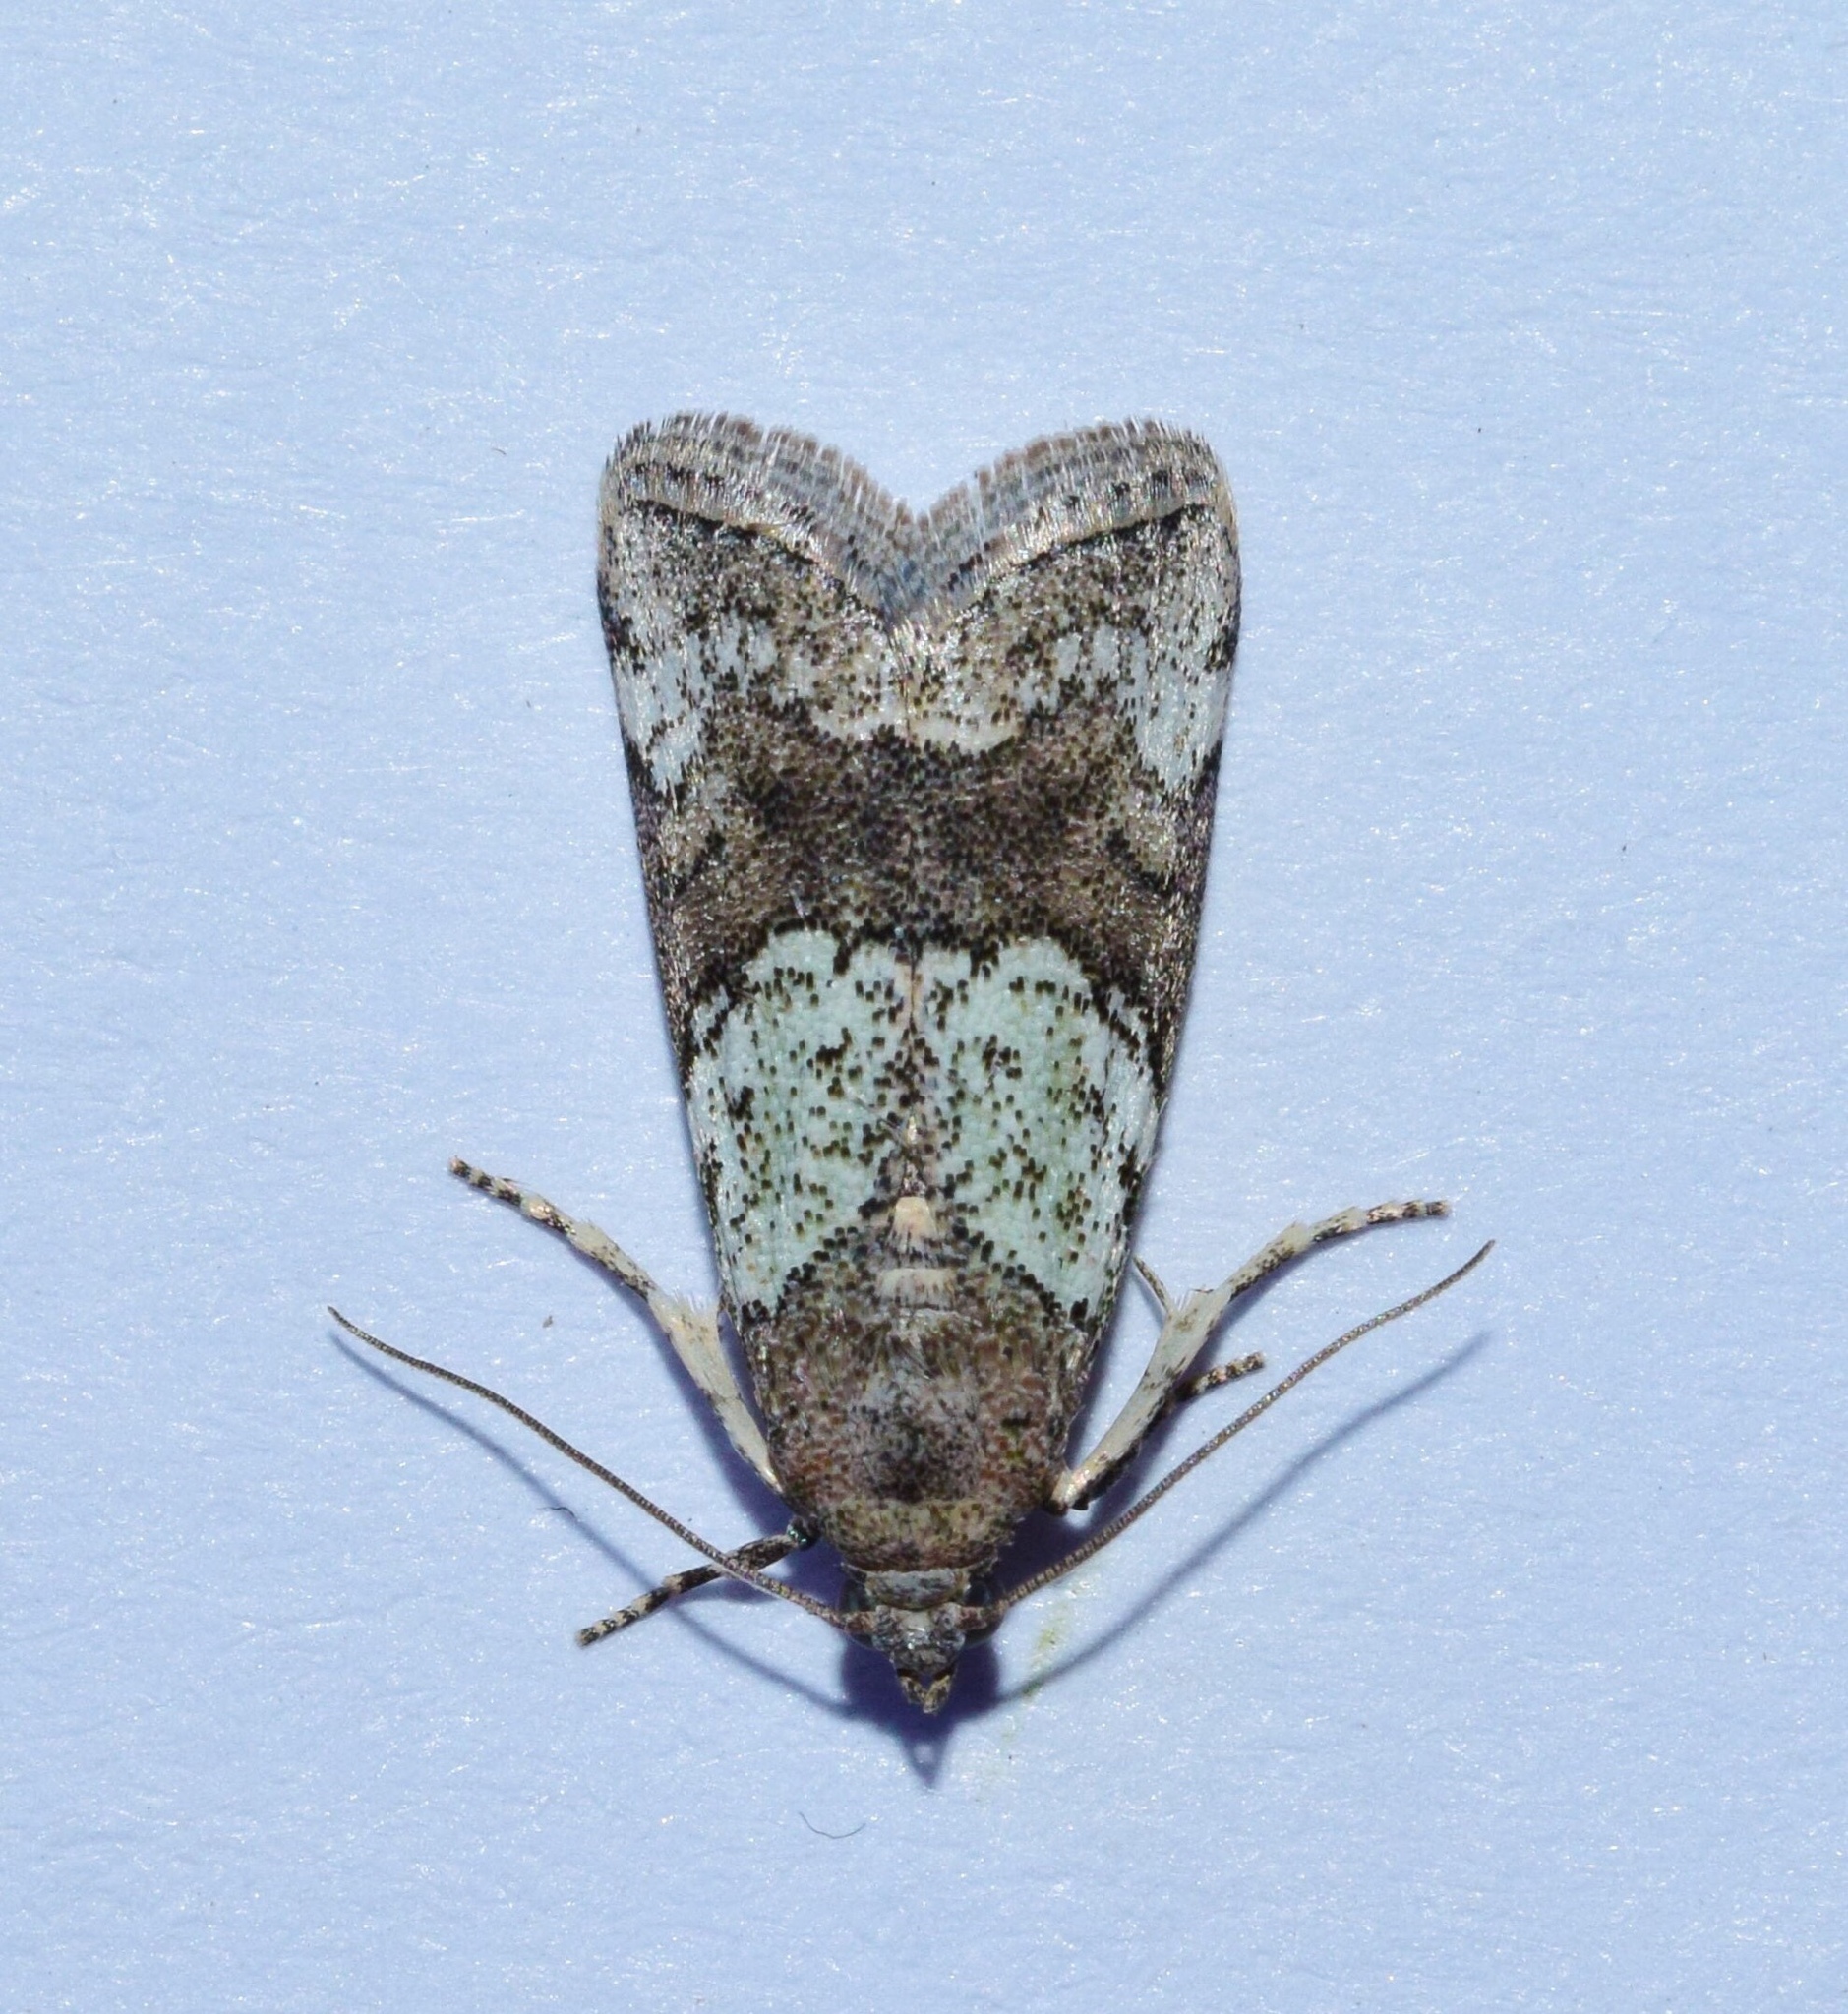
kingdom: Animalia
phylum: Arthropoda
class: Insecta
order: Lepidoptera
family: Pyralidae
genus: Acrobasis
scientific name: Acrobasis
